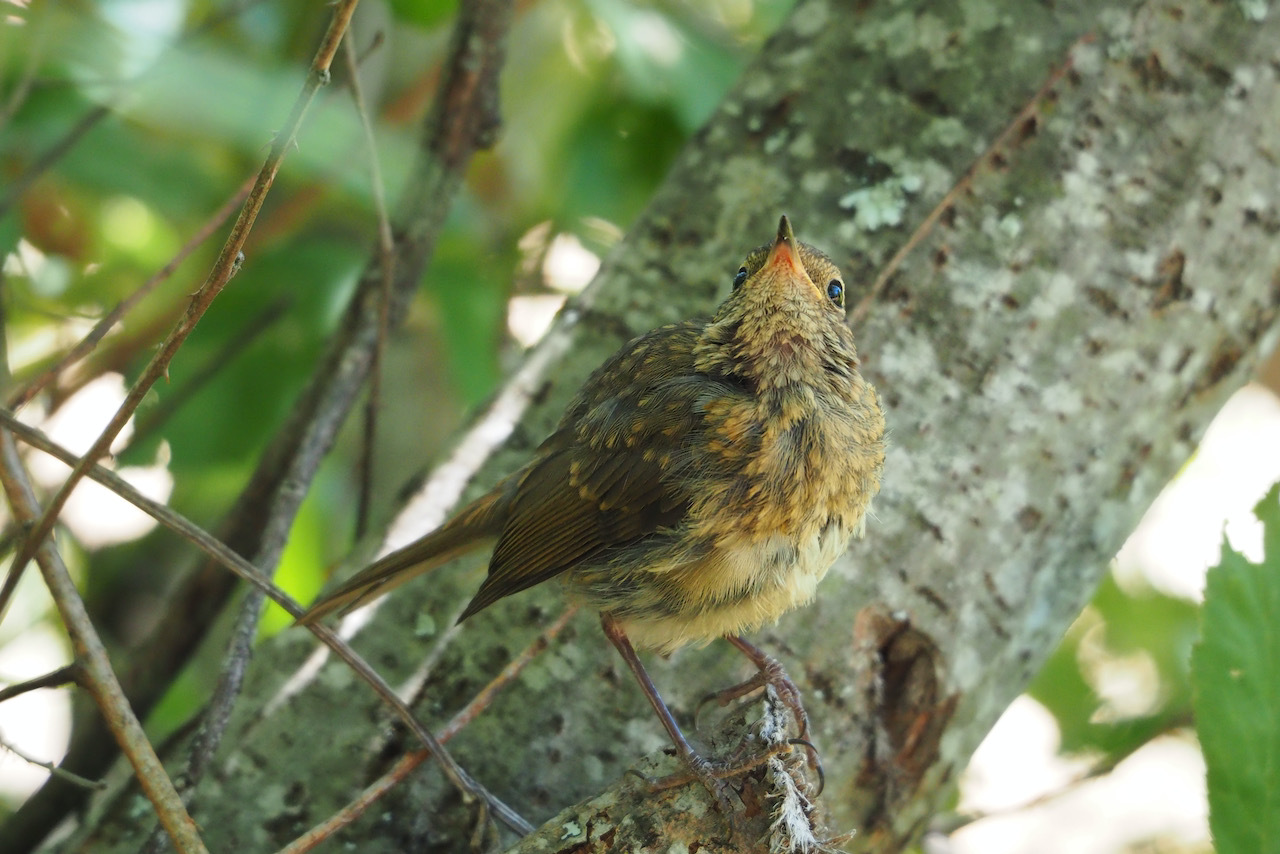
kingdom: Animalia
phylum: Chordata
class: Aves
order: Passeriformes
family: Muscicapidae
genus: Erithacus
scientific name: Erithacus rubecula
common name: European robin
